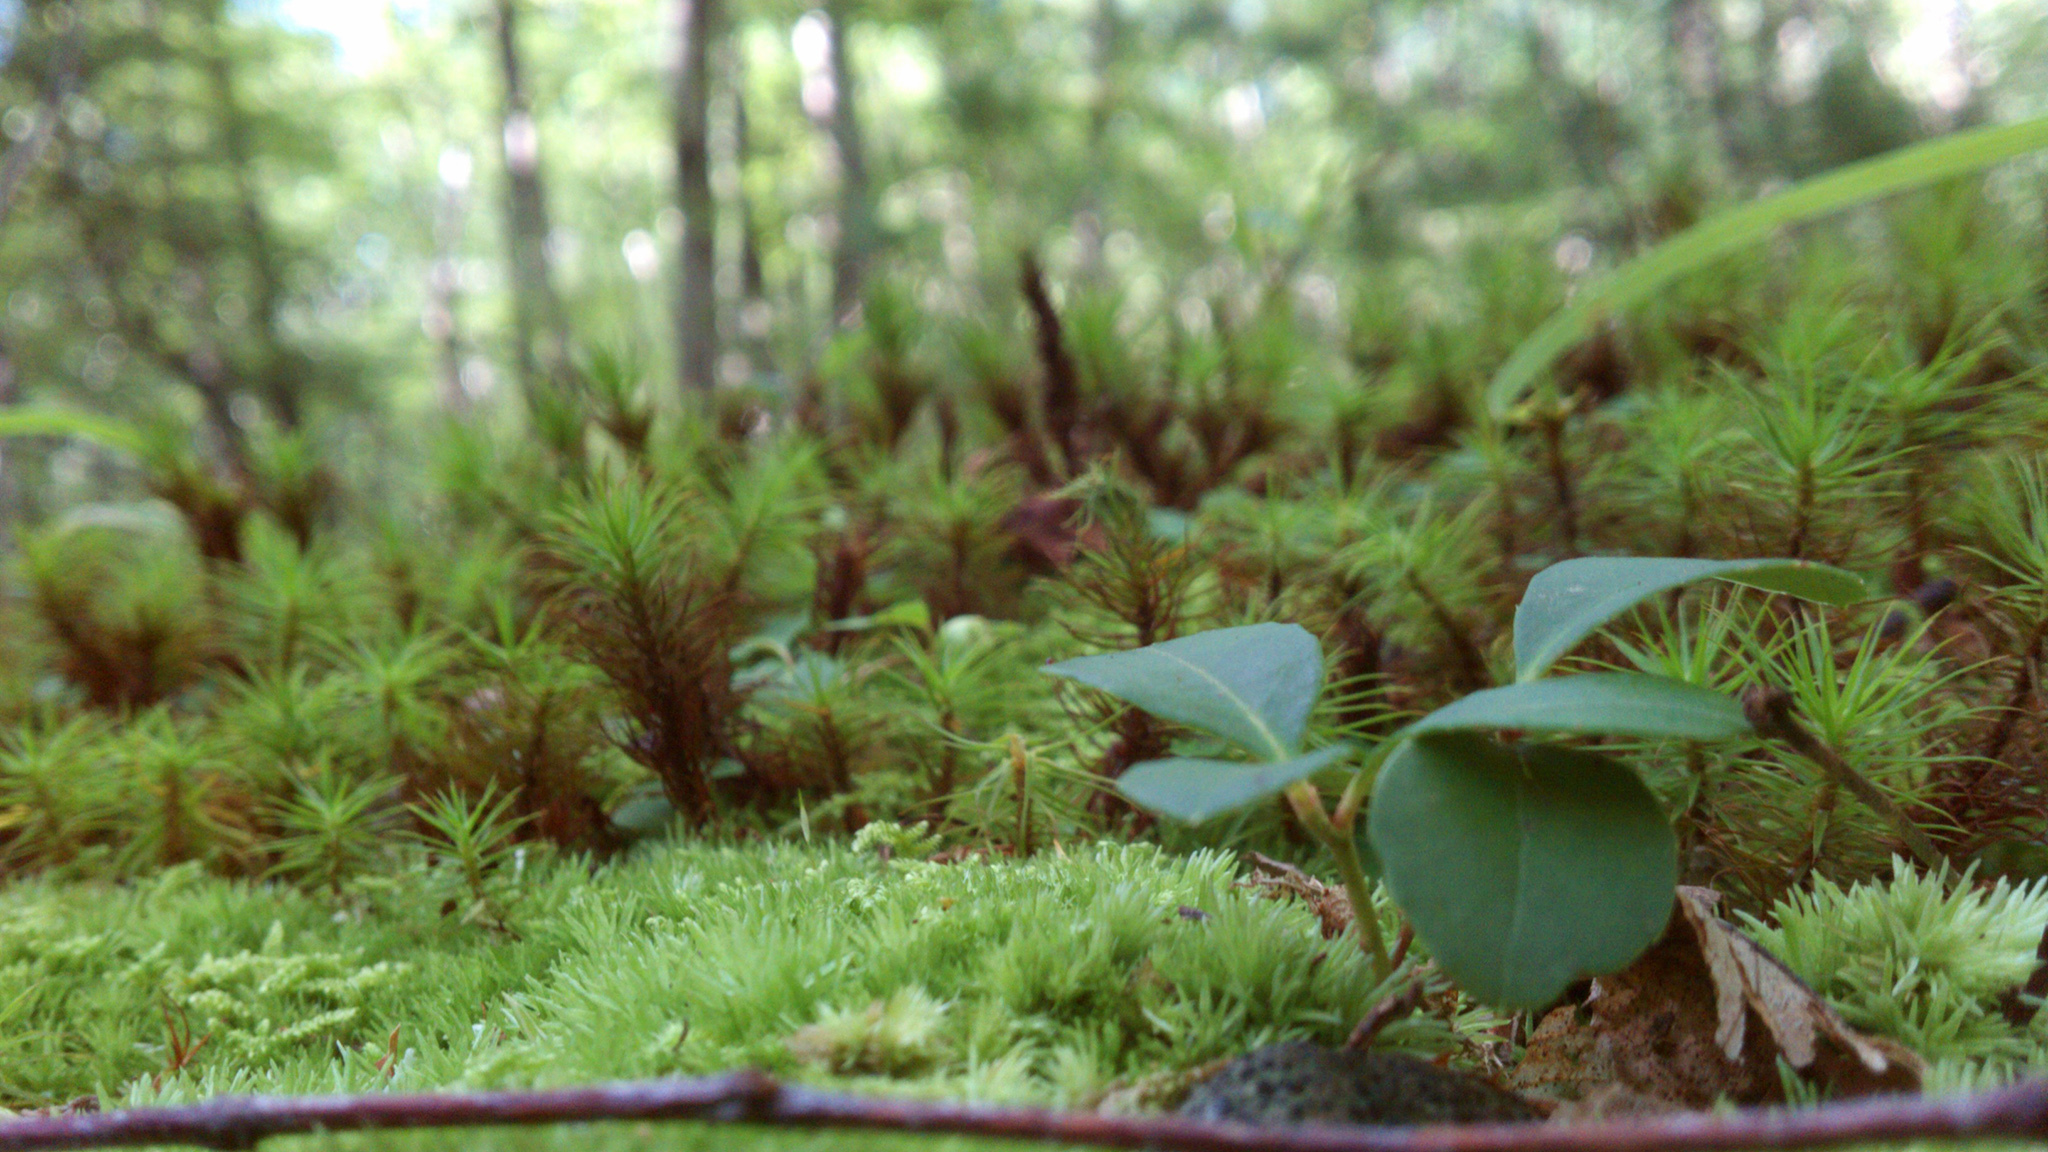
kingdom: Plantae
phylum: Tracheophyta
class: Magnoliopsida
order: Ericales
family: Ericaceae
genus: Gaultheria
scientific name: Gaultheria procumbens
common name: Checkerberry
